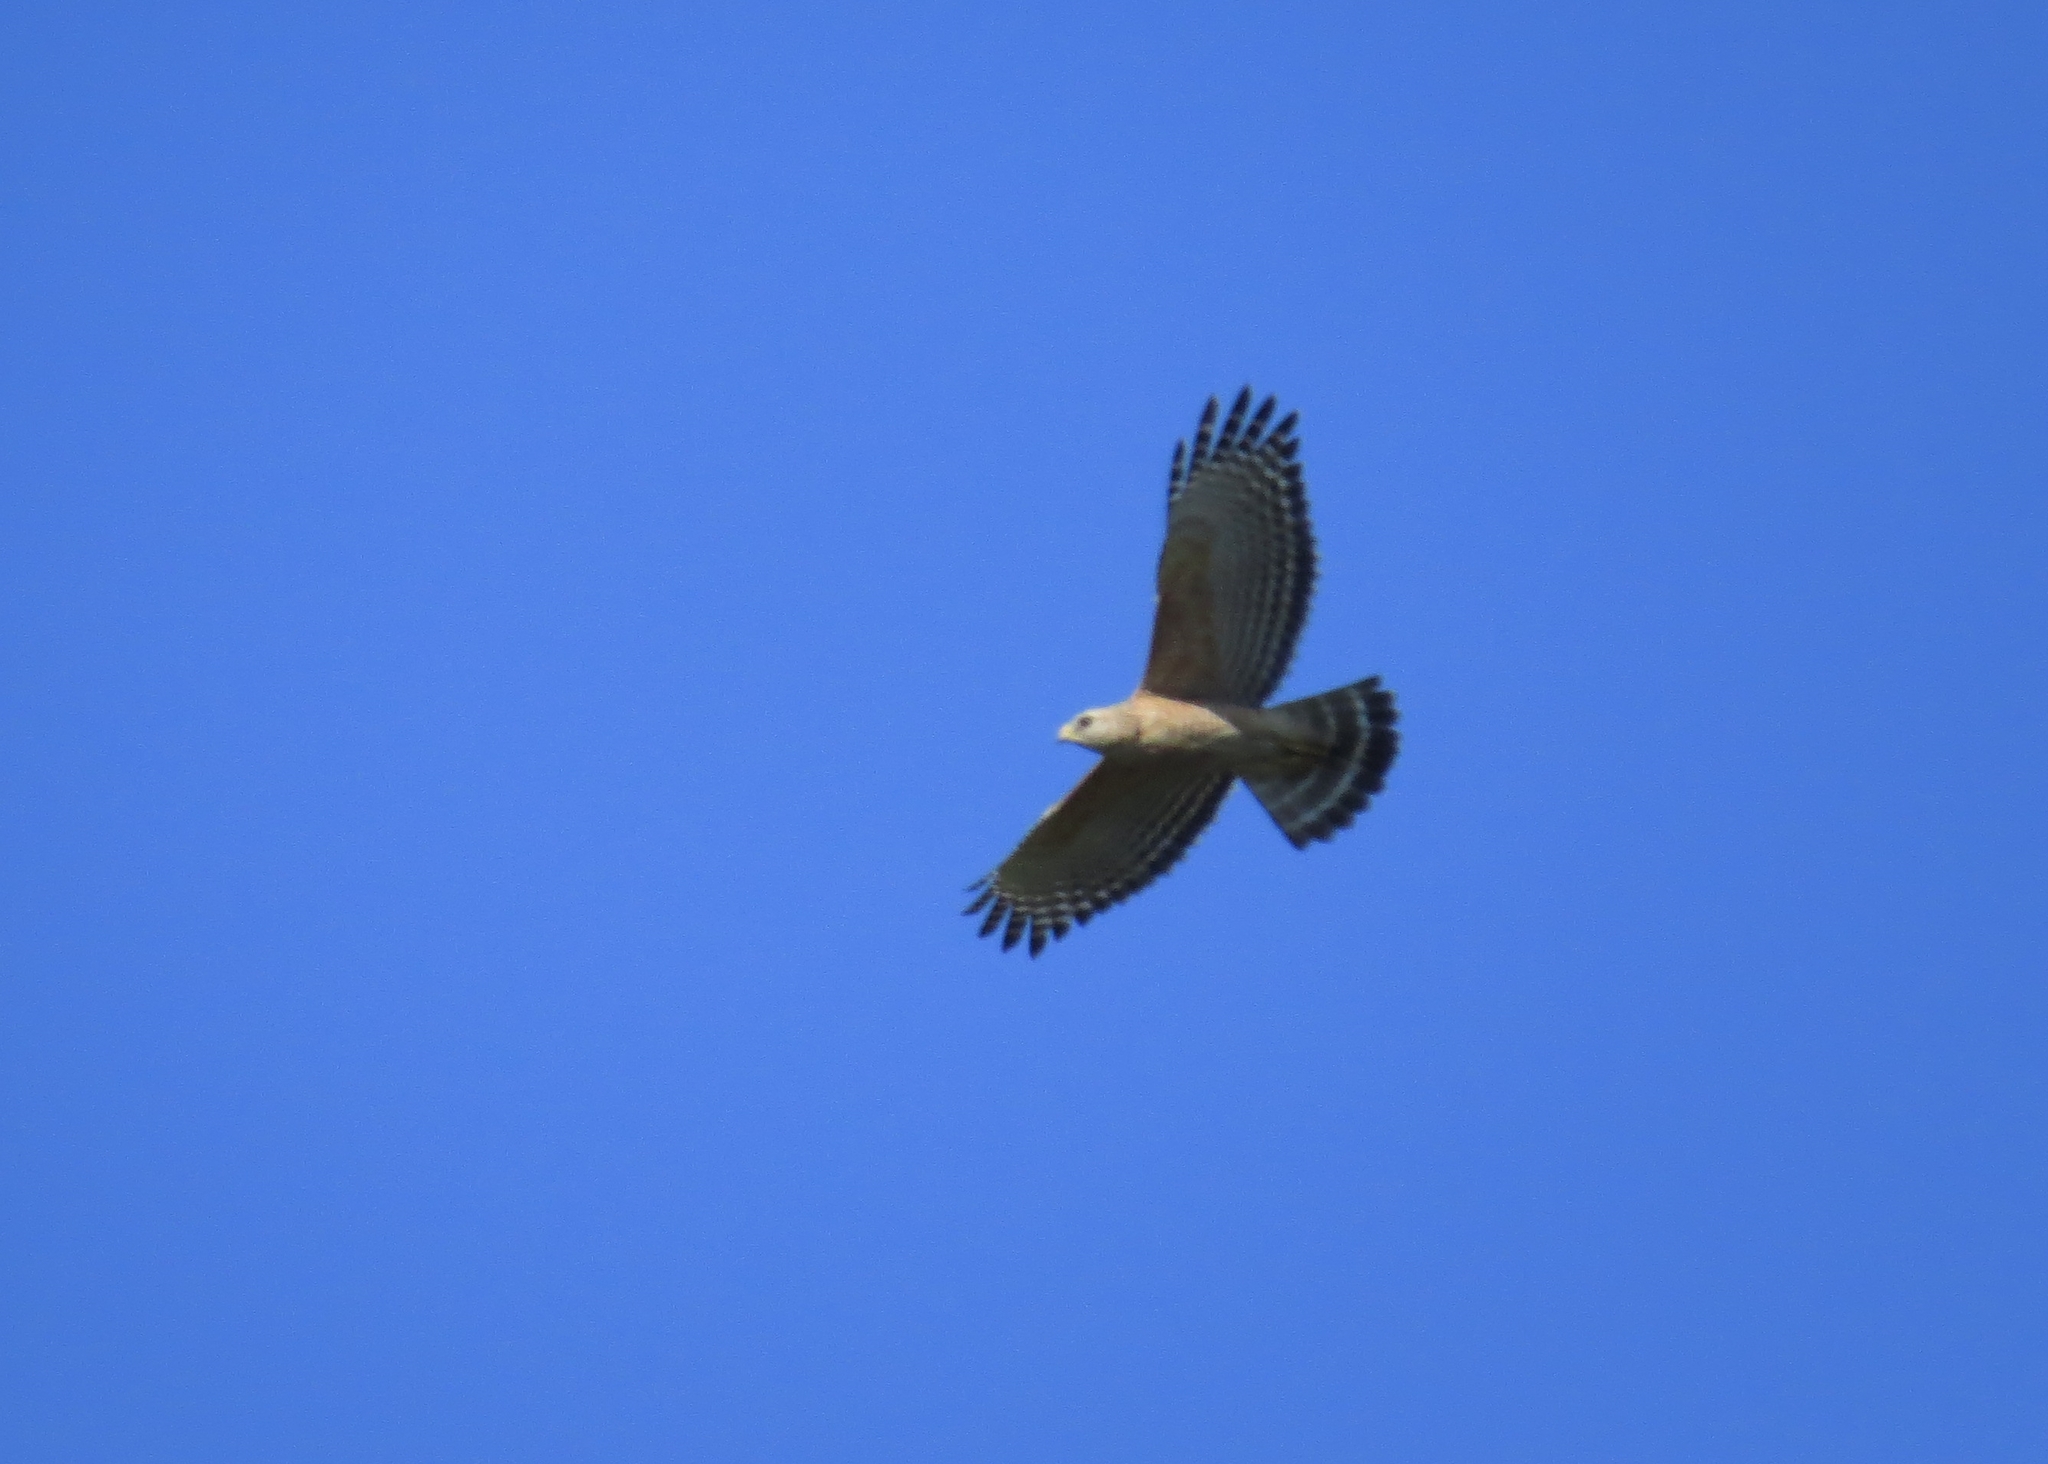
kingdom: Animalia
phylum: Chordata
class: Aves
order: Accipitriformes
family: Accipitridae
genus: Buteo
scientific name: Buteo lineatus
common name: Red-shouldered hawk
